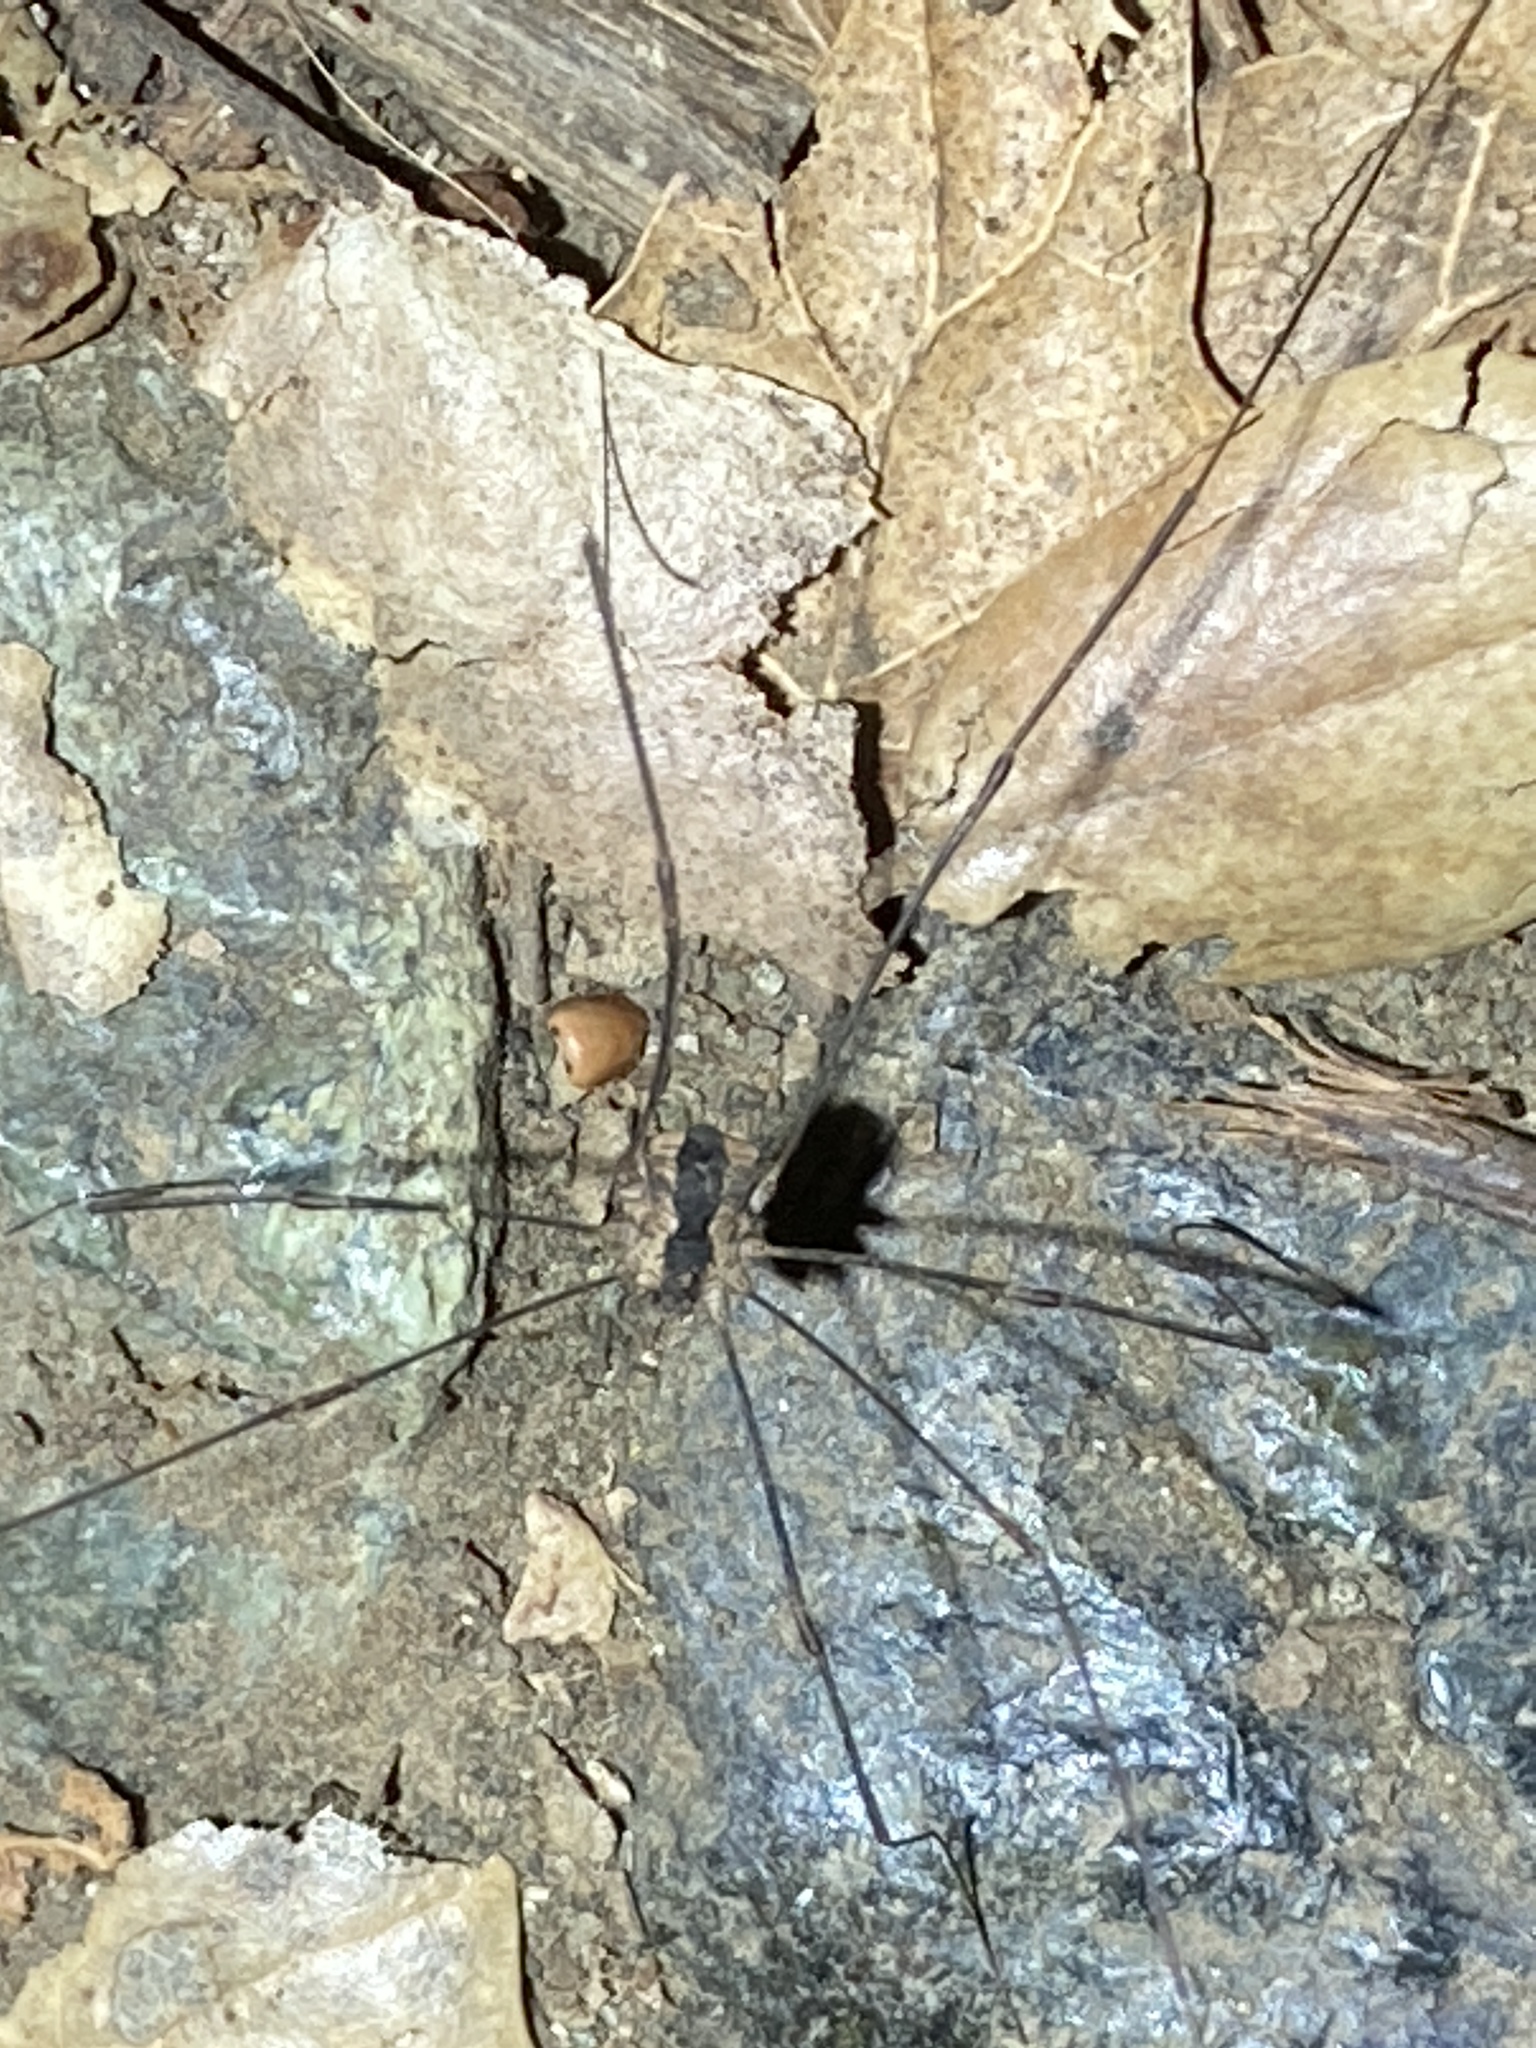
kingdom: Animalia
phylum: Arthropoda
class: Arachnida
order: Opiliones
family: Sclerosomatidae
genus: Leuronychus
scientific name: Leuronychus pacificus
